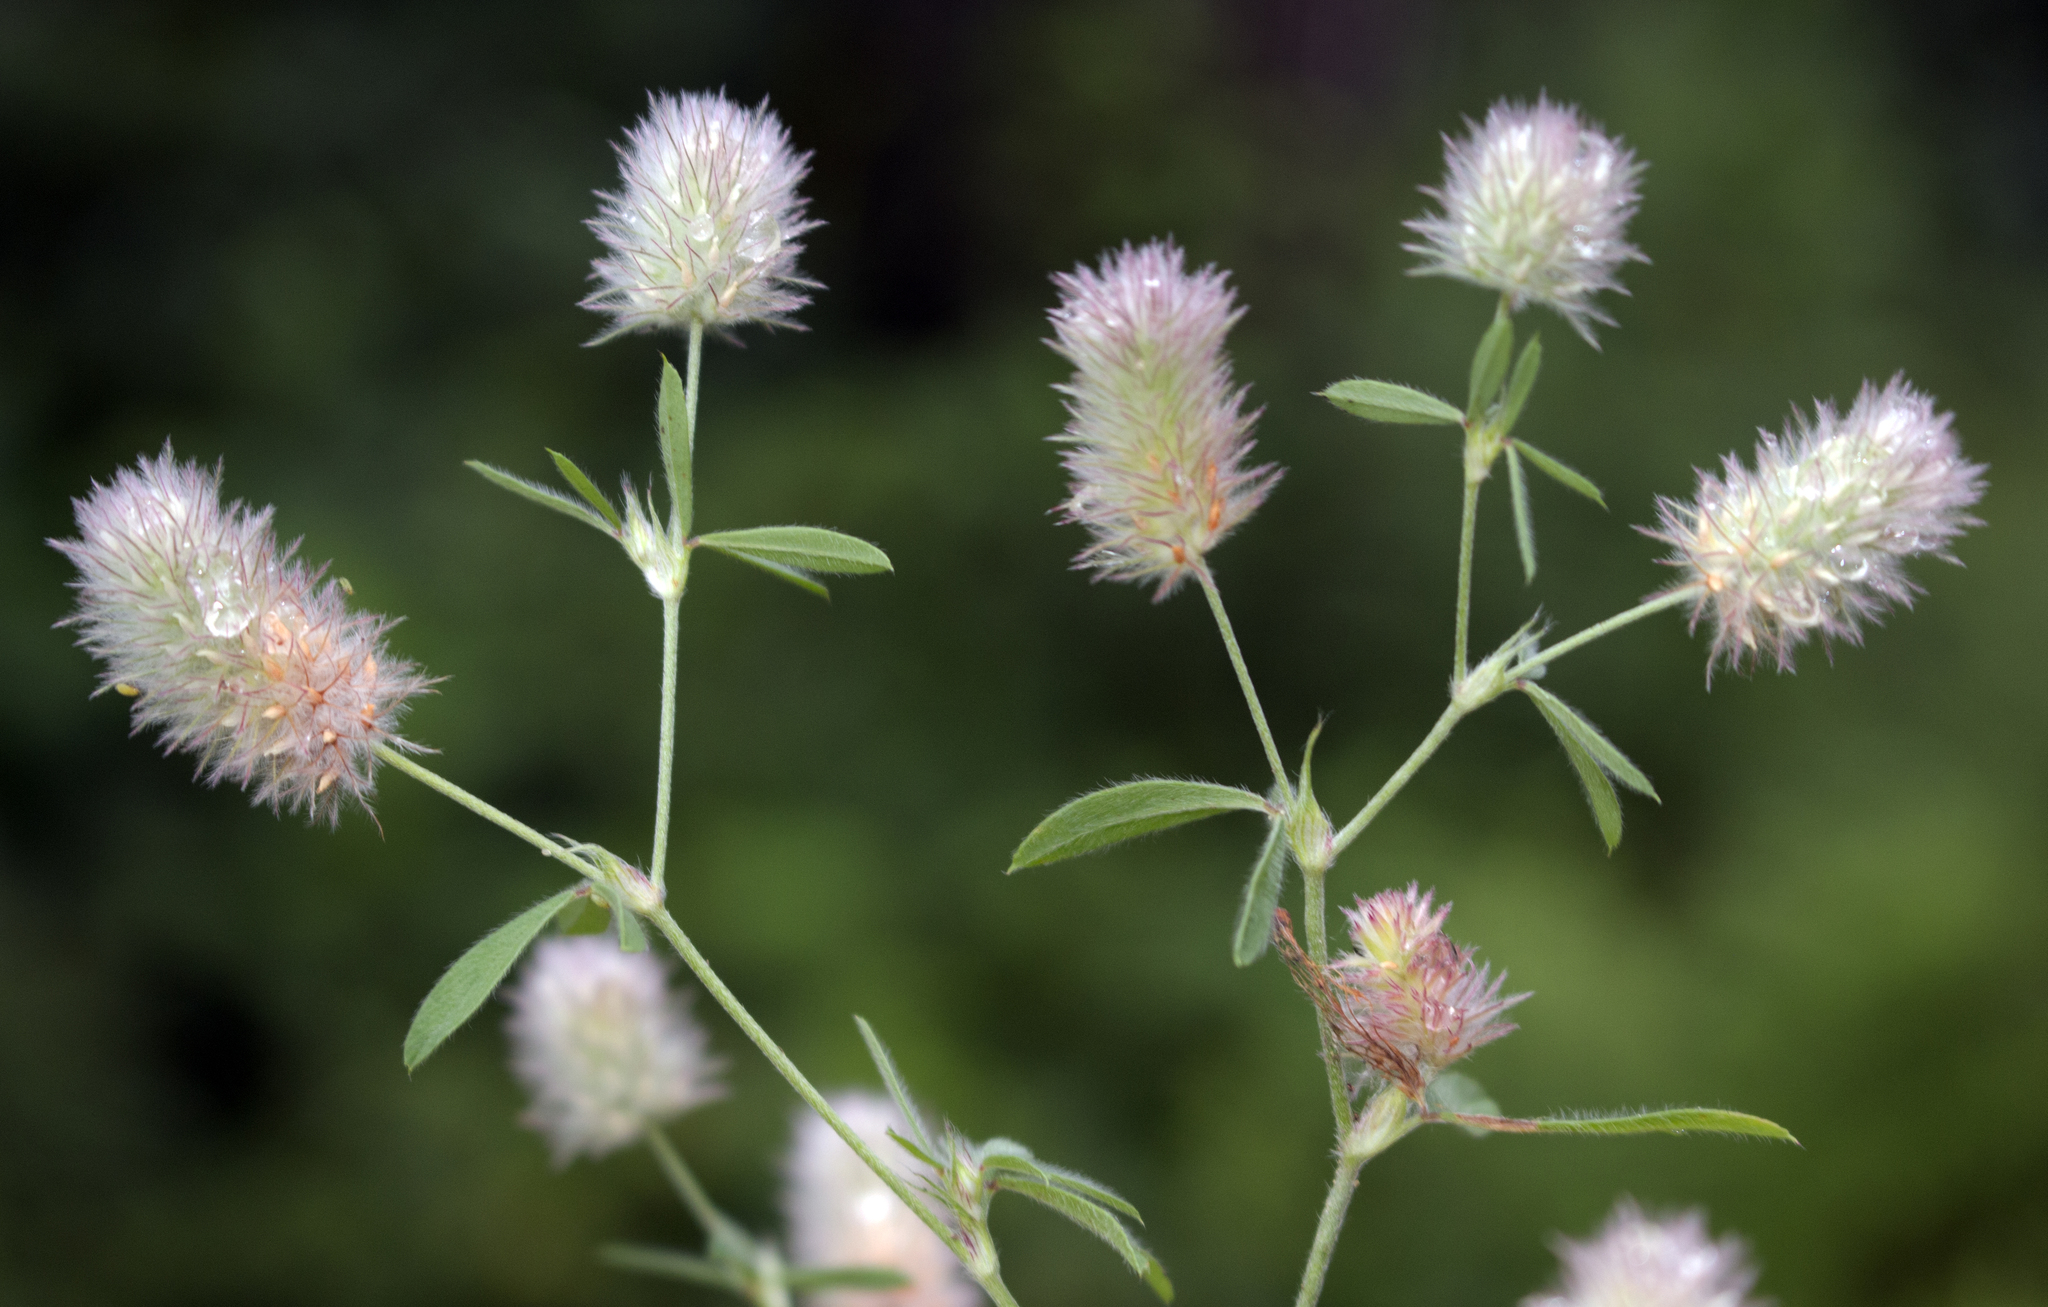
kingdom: Plantae
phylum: Tracheophyta
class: Magnoliopsida
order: Fabales
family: Fabaceae
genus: Trifolium
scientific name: Trifolium arvense
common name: Hare's-foot clover
